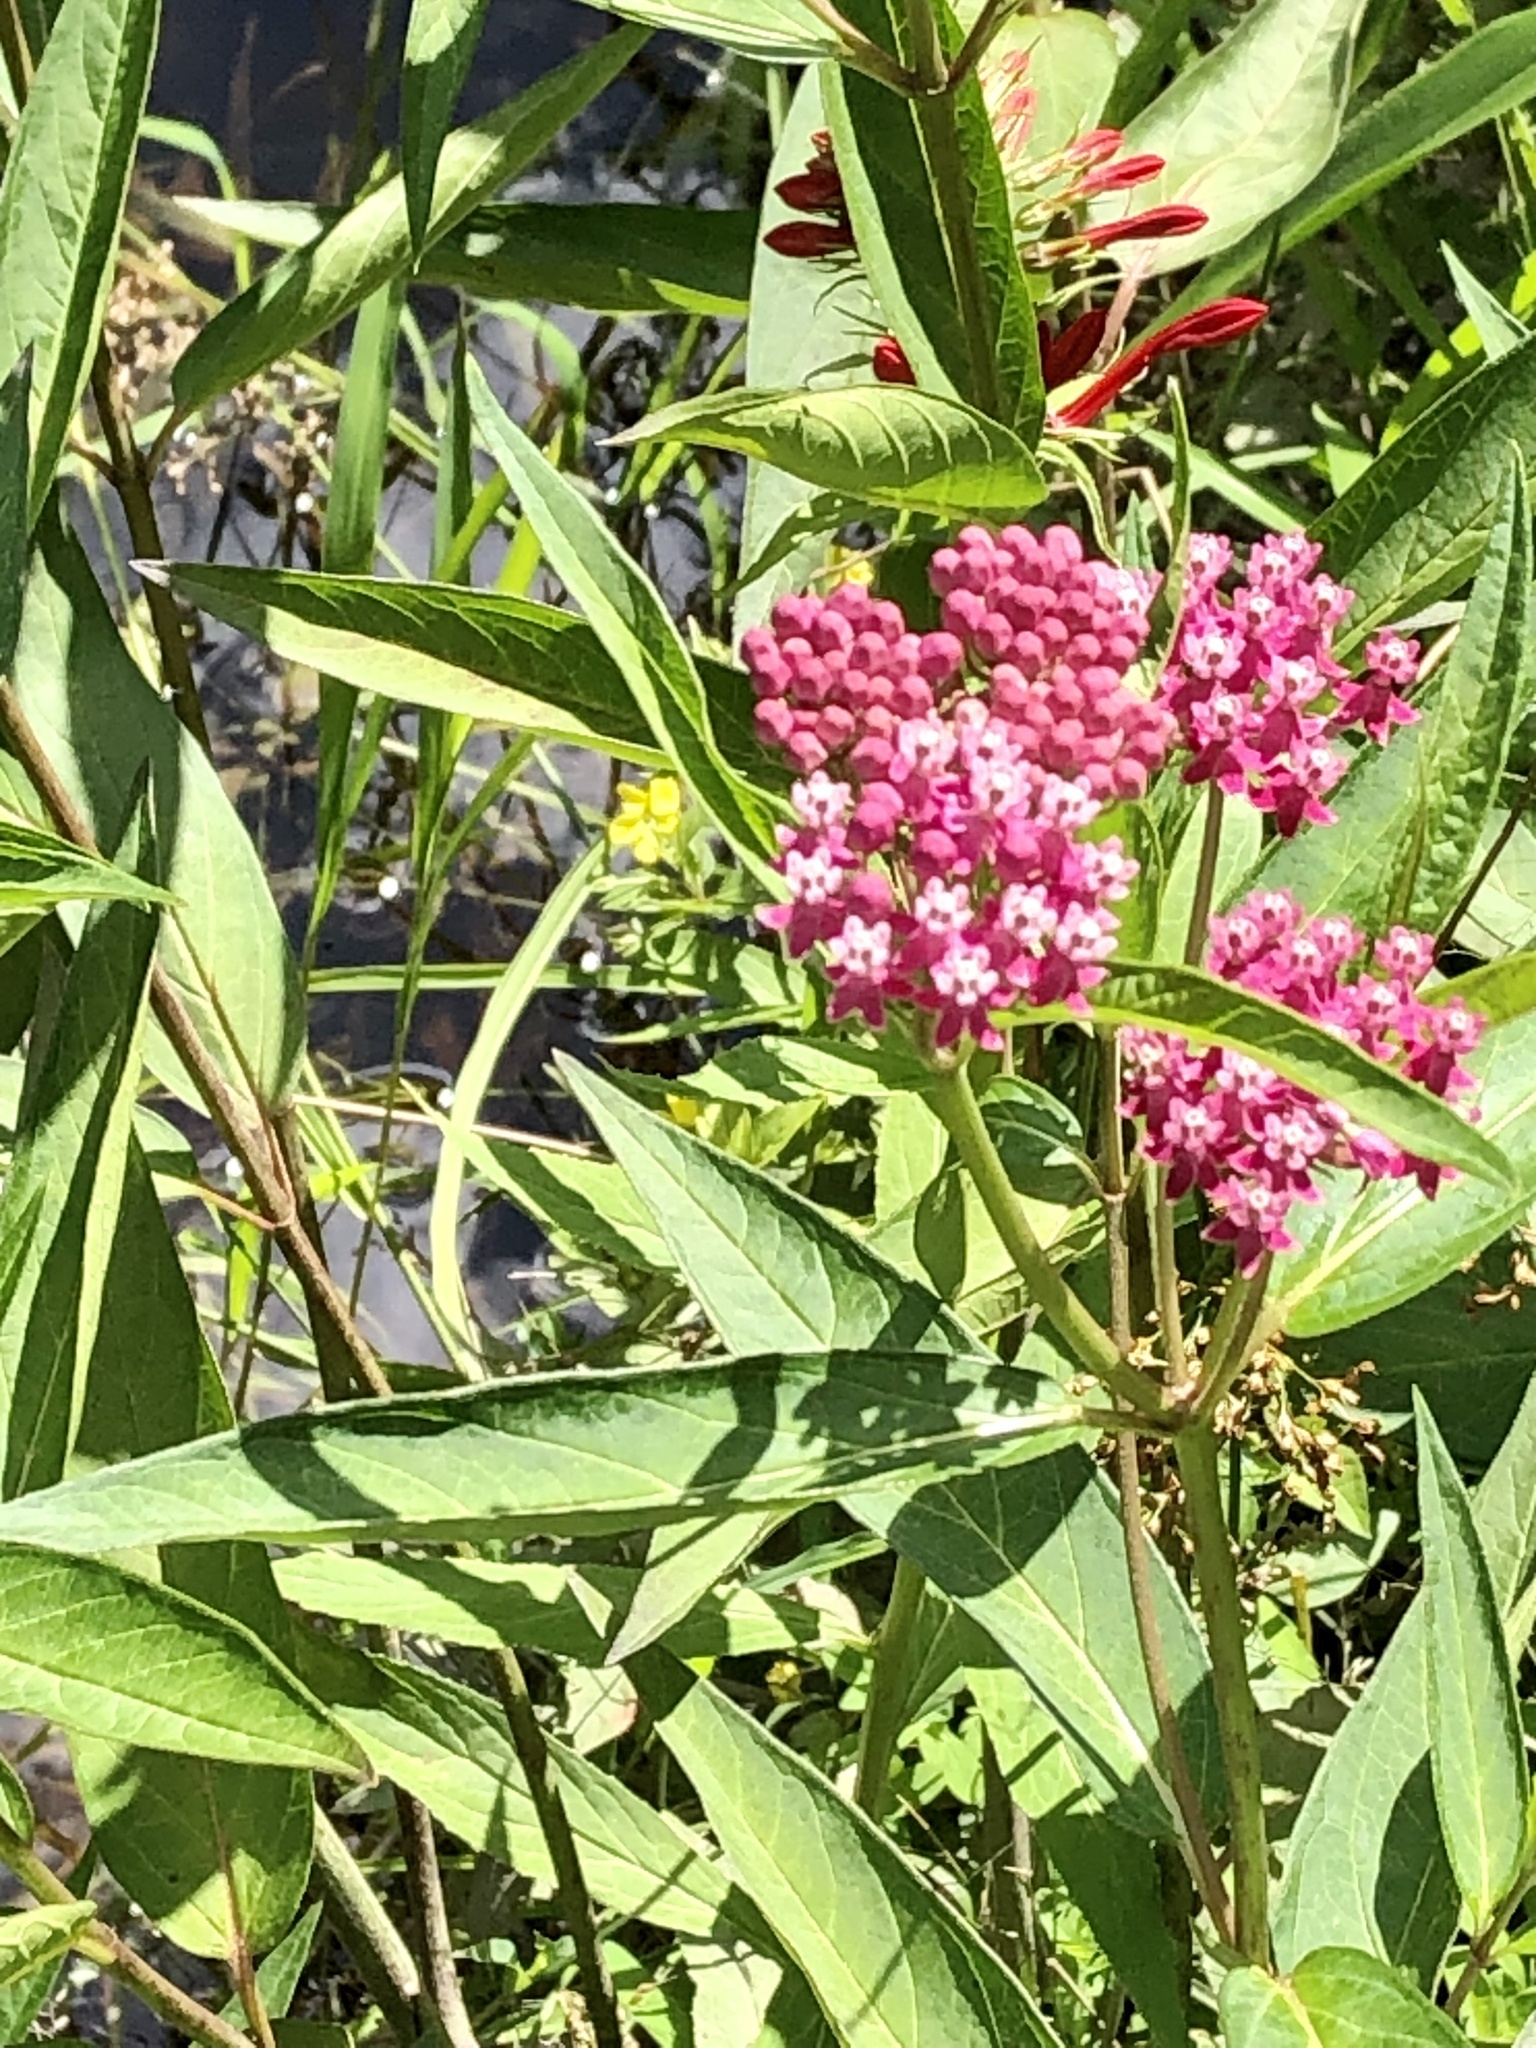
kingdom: Plantae
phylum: Tracheophyta
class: Magnoliopsida
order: Gentianales
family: Apocynaceae
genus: Asclepias
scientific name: Asclepias incarnata
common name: Swamp milkweed
